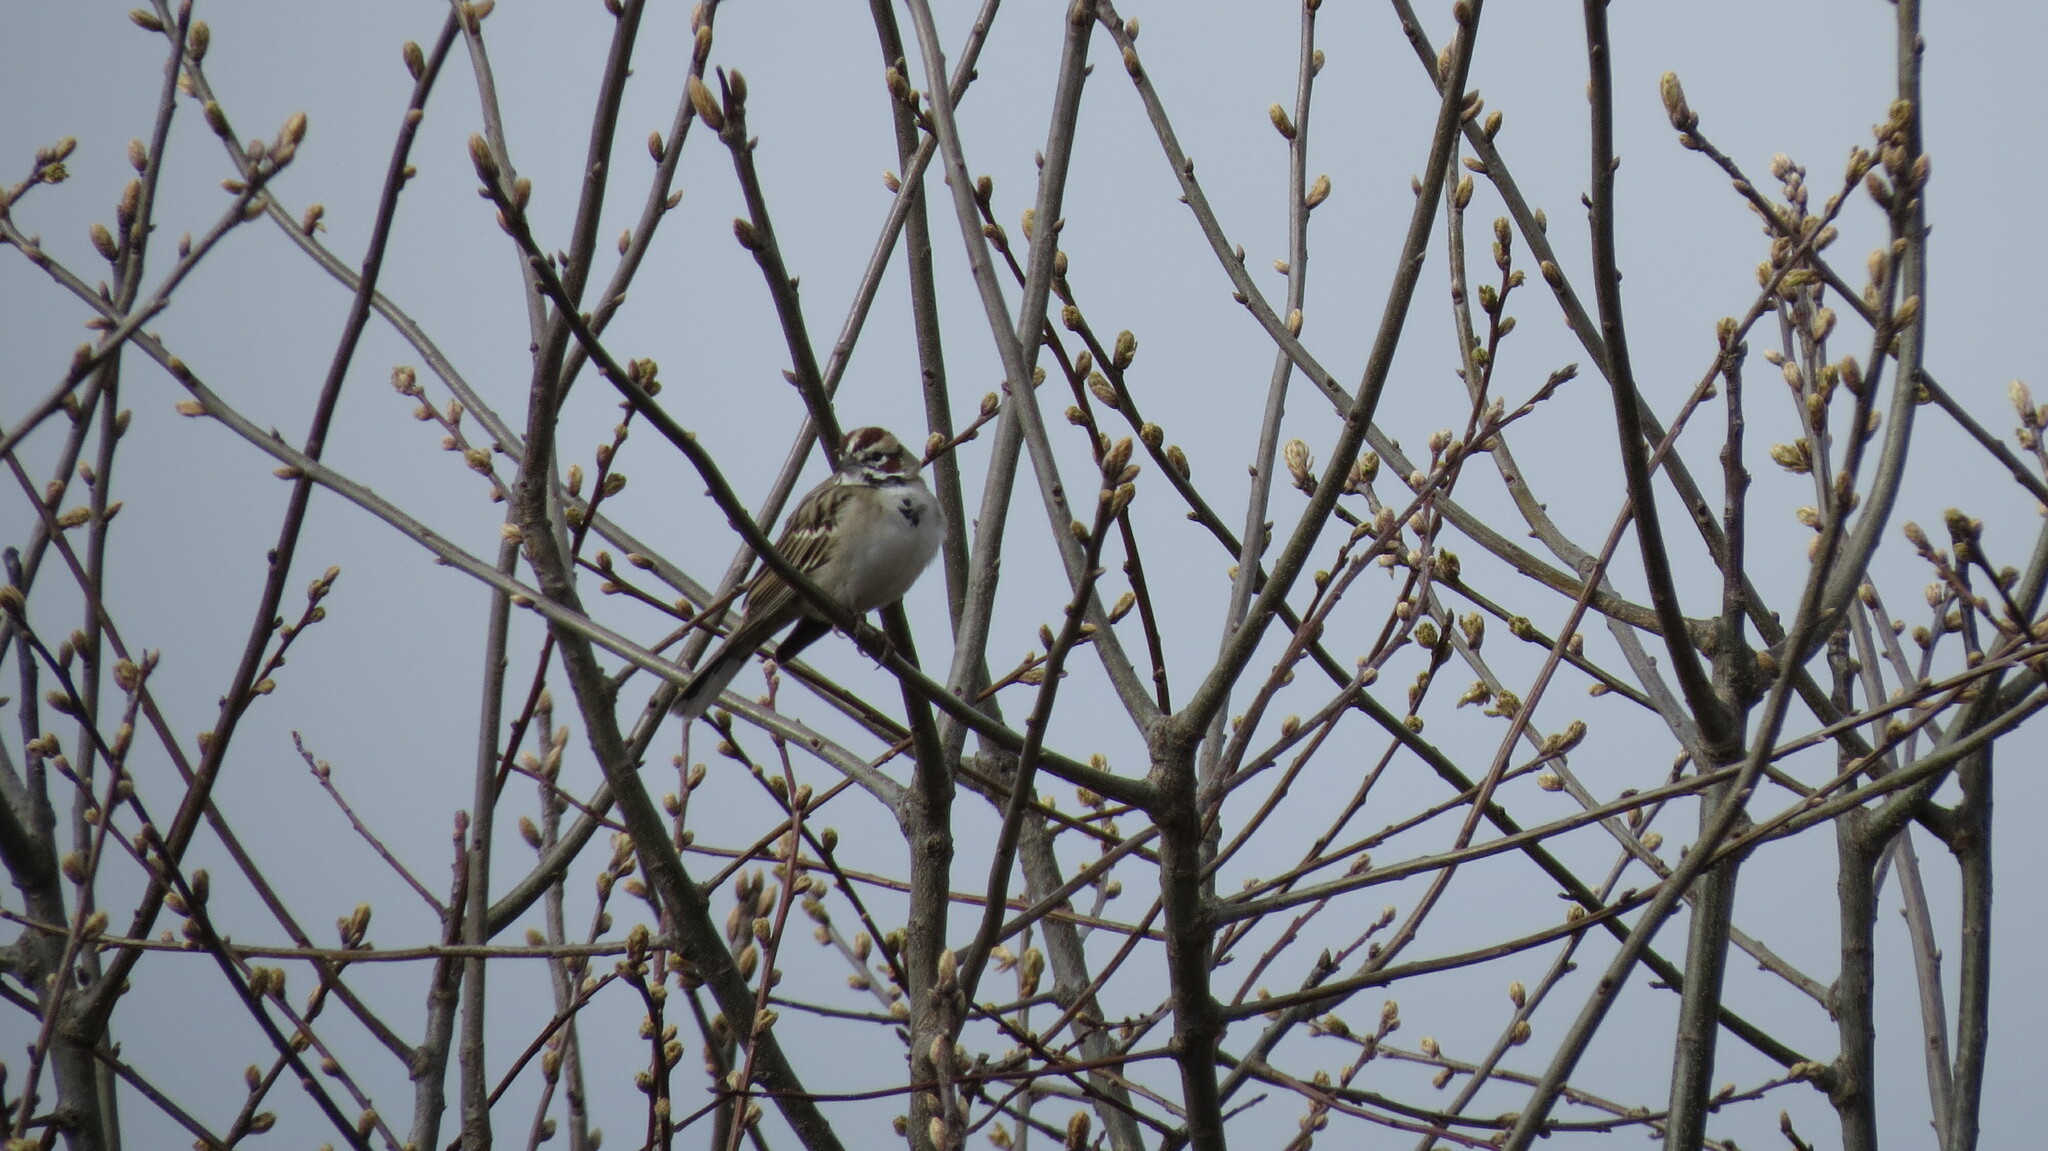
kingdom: Animalia
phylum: Chordata
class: Aves
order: Passeriformes
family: Passerellidae
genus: Chondestes
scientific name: Chondestes grammacus
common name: Lark sparrow
